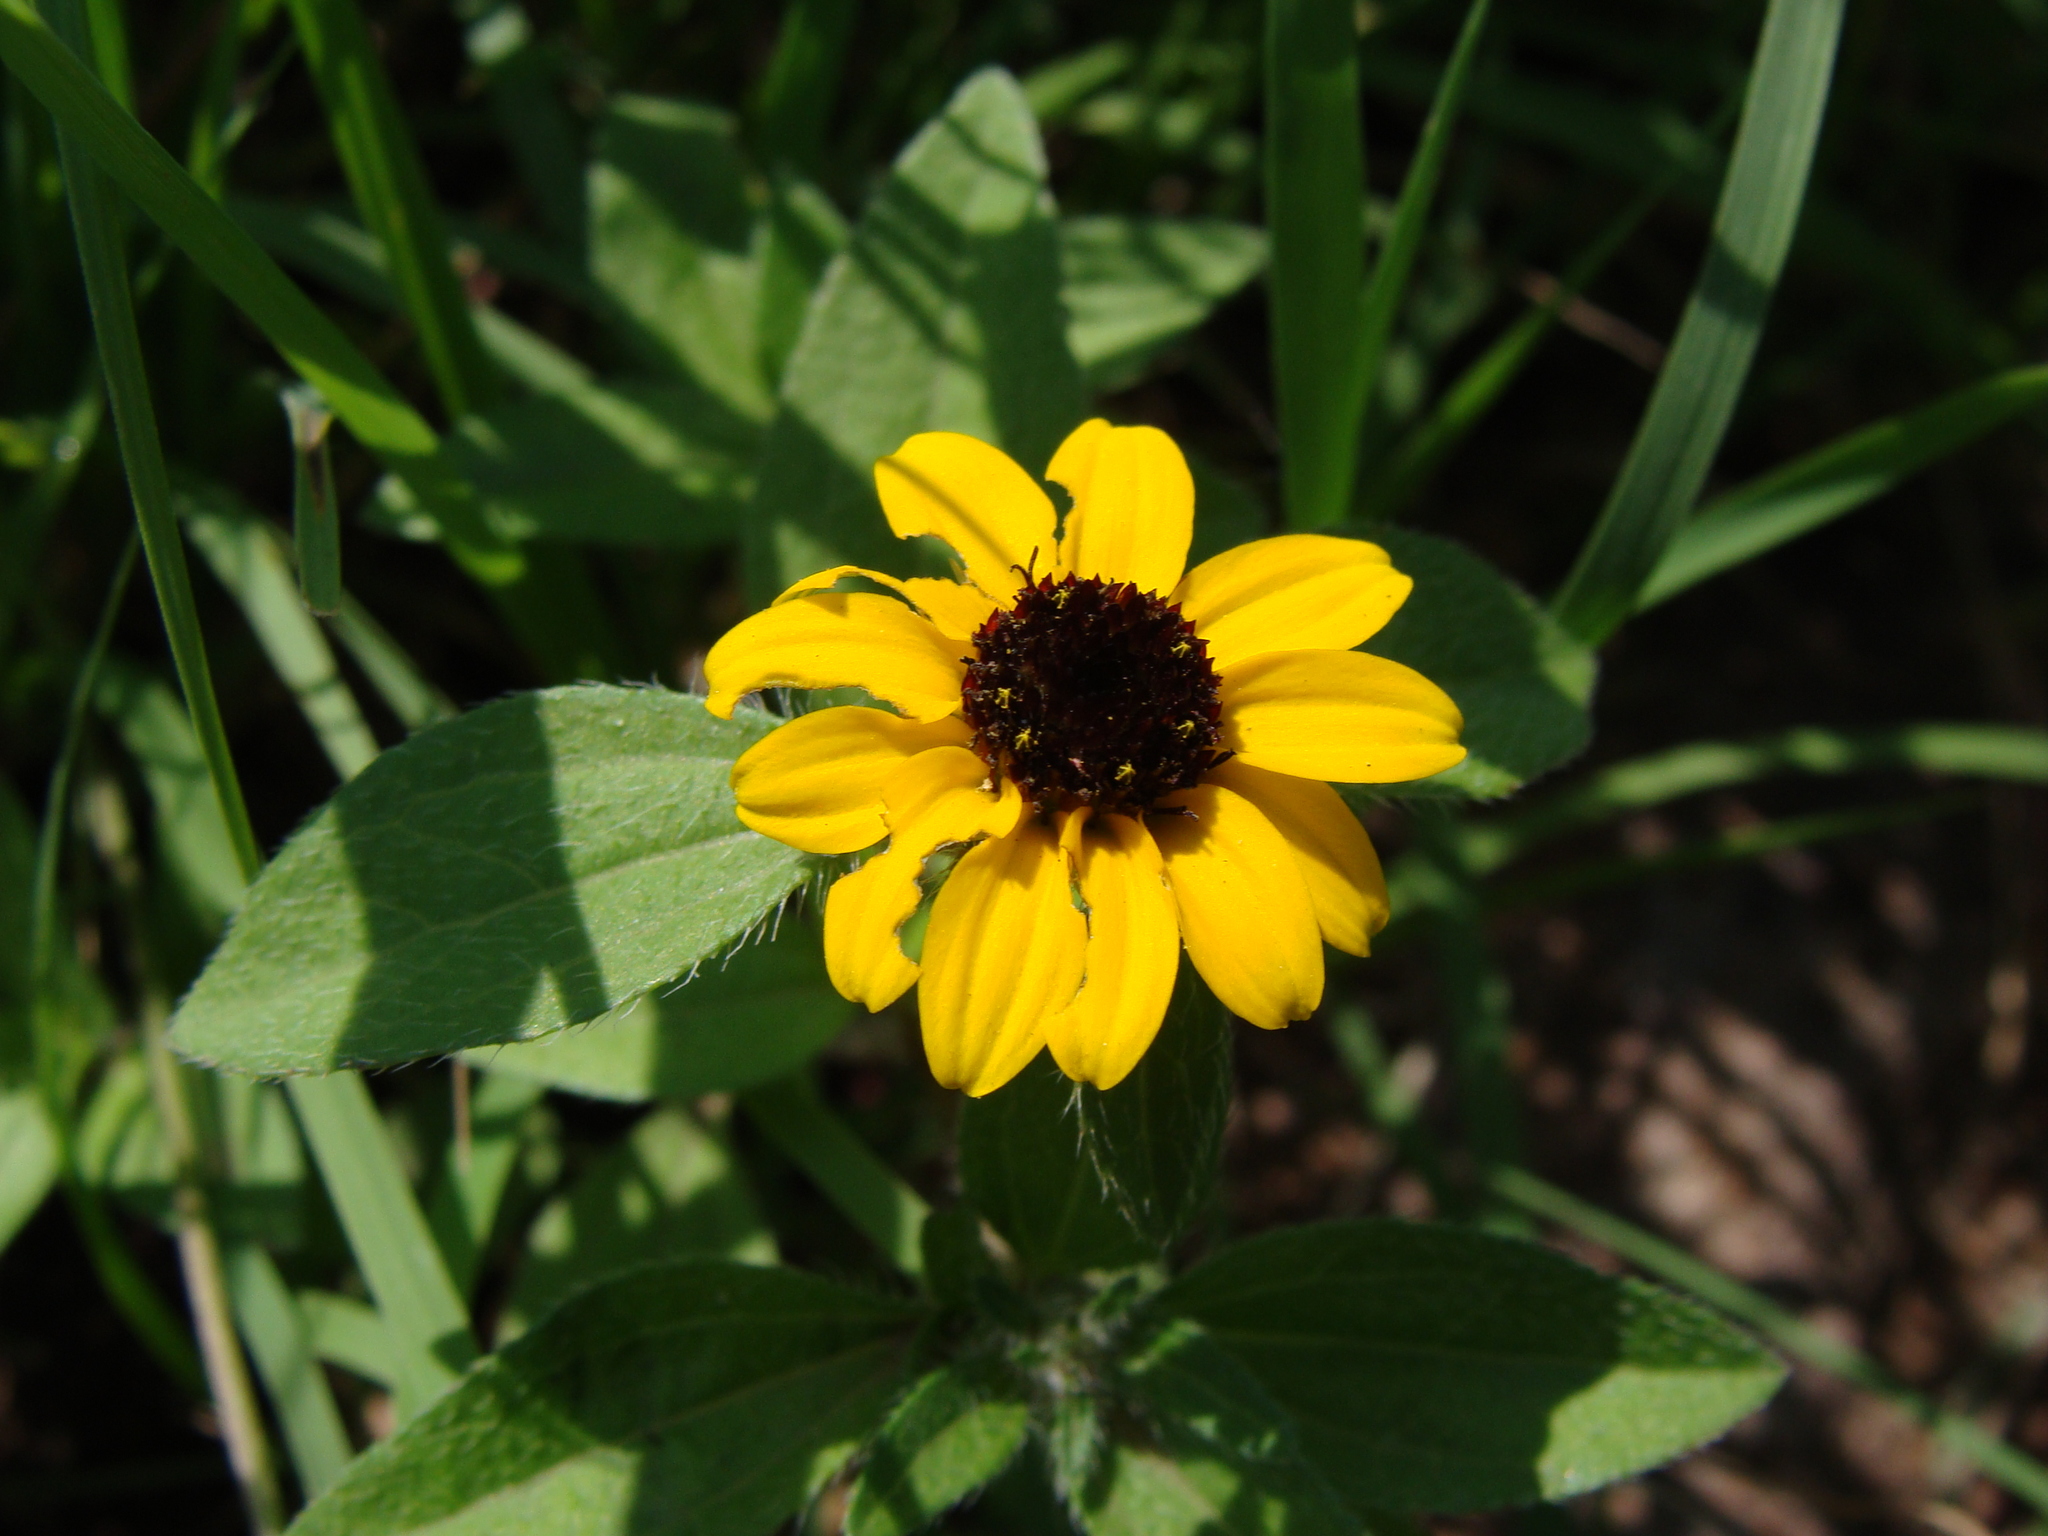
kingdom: Plantae
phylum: Tracheophyta
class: Magnoliopsida
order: Asterales
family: Asteraceae
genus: Sanvitalia
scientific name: Sanvitalia procumbens
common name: Mexican creeping zinnia
